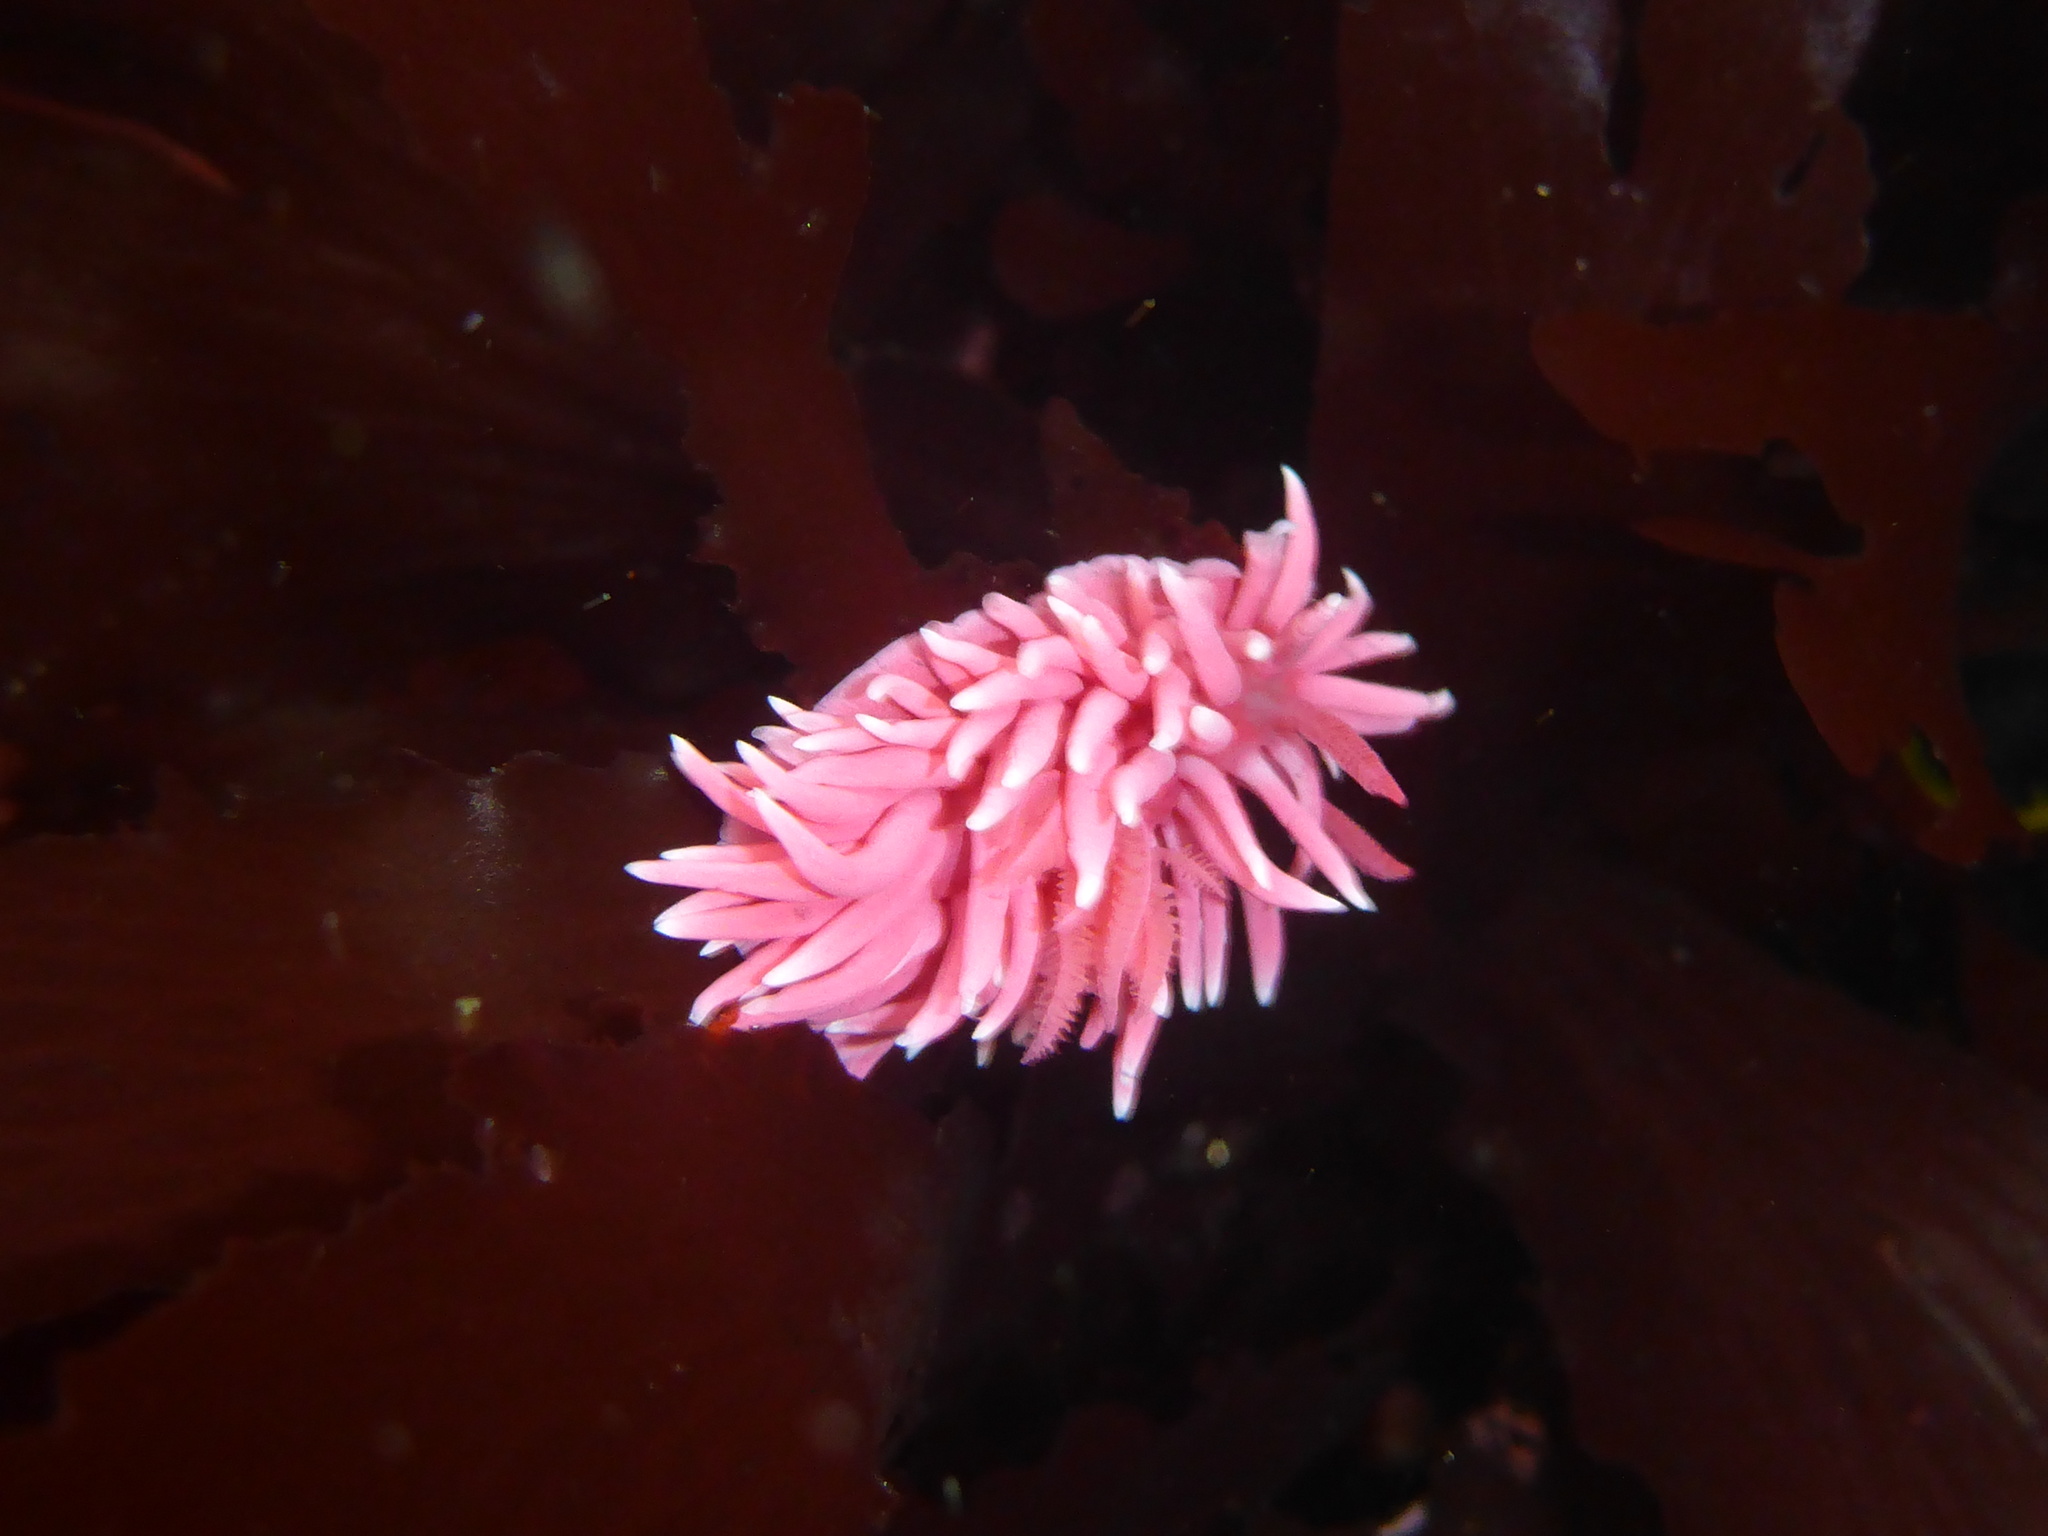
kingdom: Animalia
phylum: Mollusca
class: Gastropoda
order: Nudibranchia
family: Goniodorididae
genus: Okenia
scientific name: Okenia
